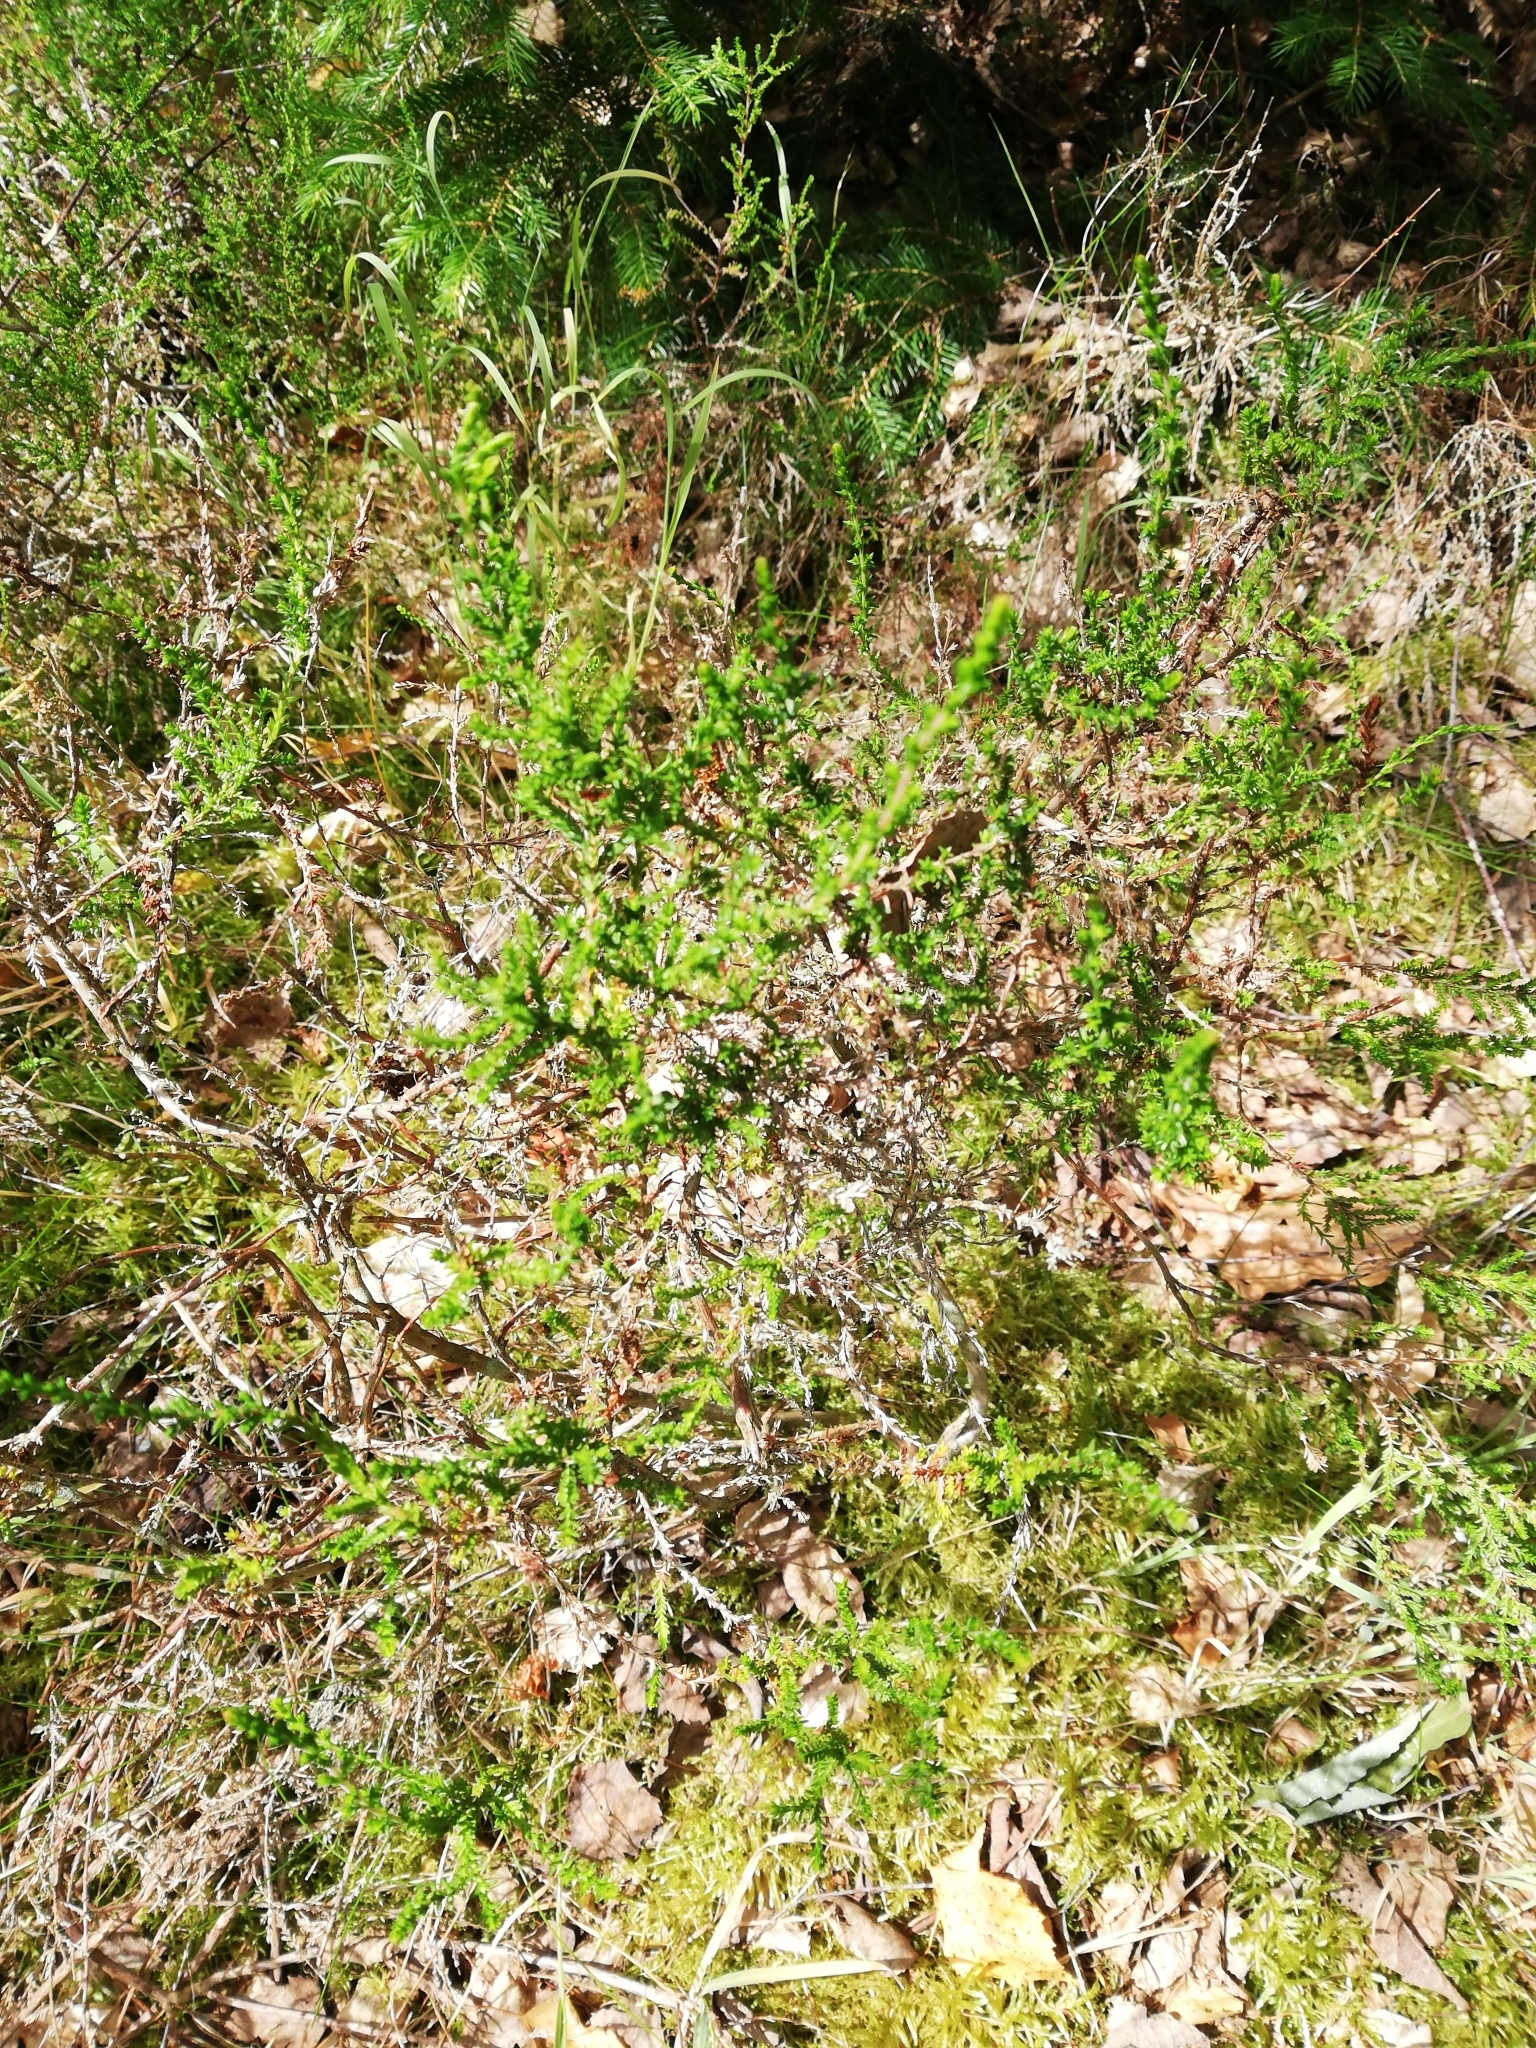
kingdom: Plantae
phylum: Tracheophyta
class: Magnoliopsida
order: Ericales
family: Ericaceae
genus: Calluna
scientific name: Calluna vulgaris
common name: Heather
